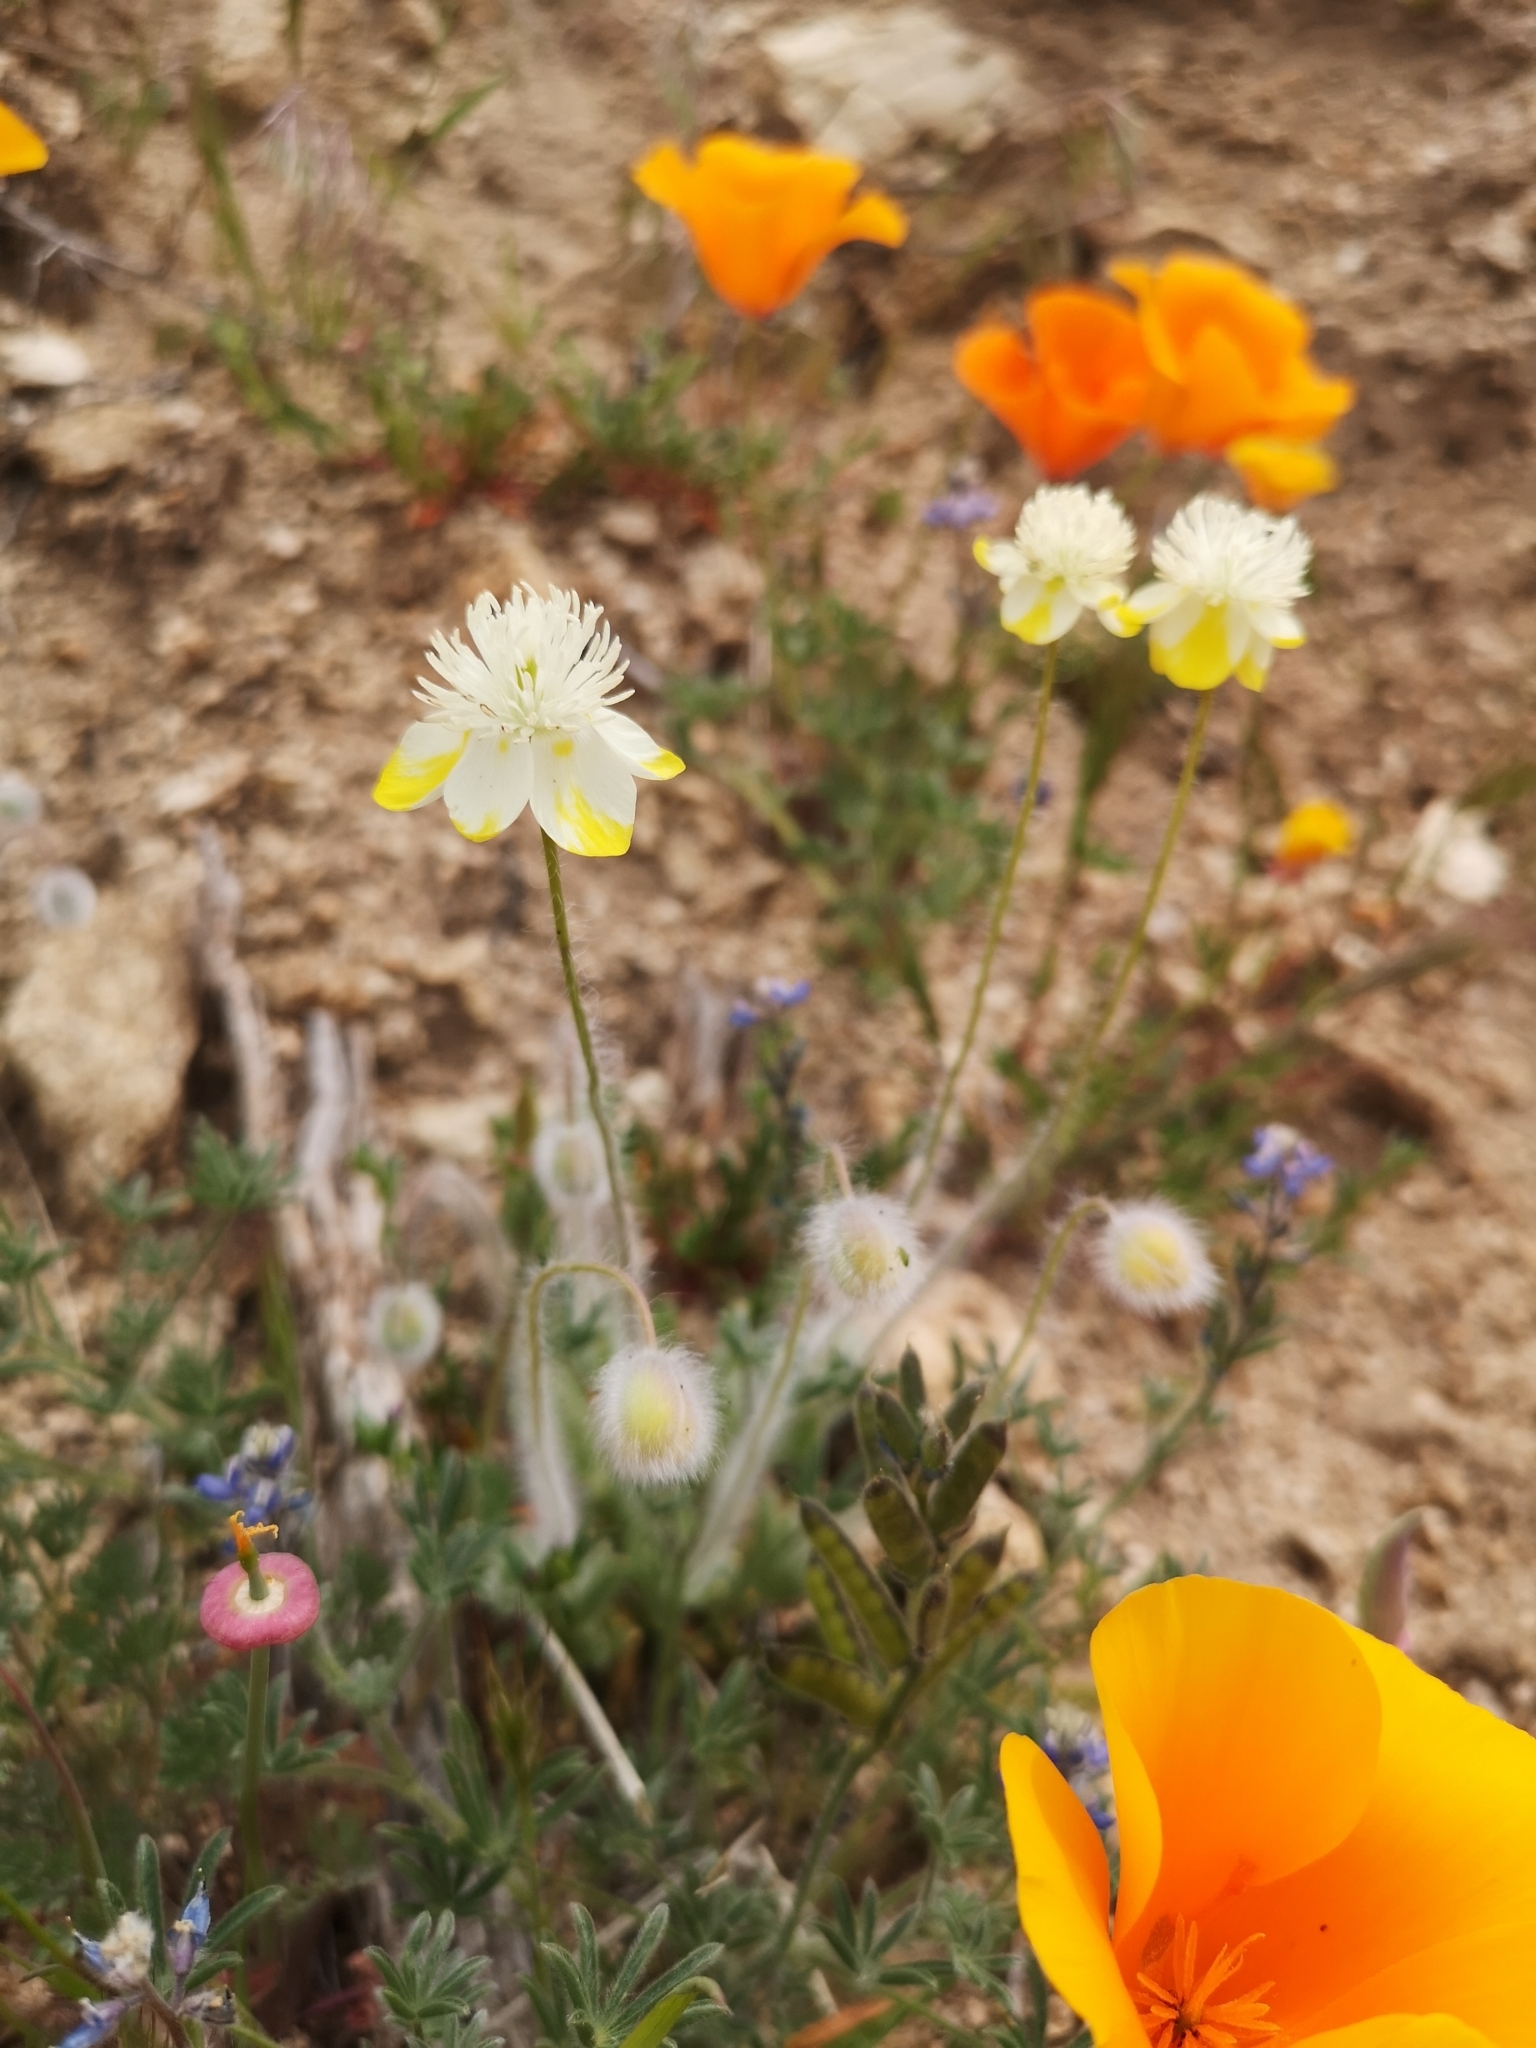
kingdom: Plantae
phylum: Tracheophyta
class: Magnoliopsida
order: Ranunculales
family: Papaveraceae
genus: Platystemon
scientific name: Platystemon californicus
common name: Cream-cups
